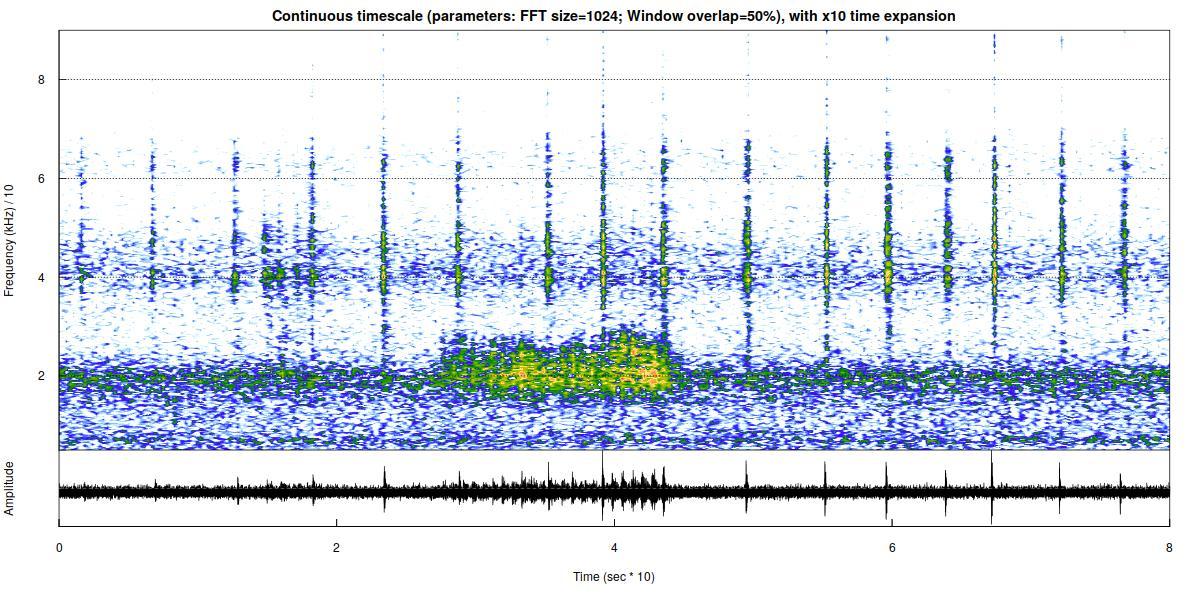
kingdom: Animalia
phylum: Chordata
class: Mammalia
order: Chiroptera
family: Vespertilionidae
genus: Myotis
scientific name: Myotis nattereri
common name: Natterer's bat
